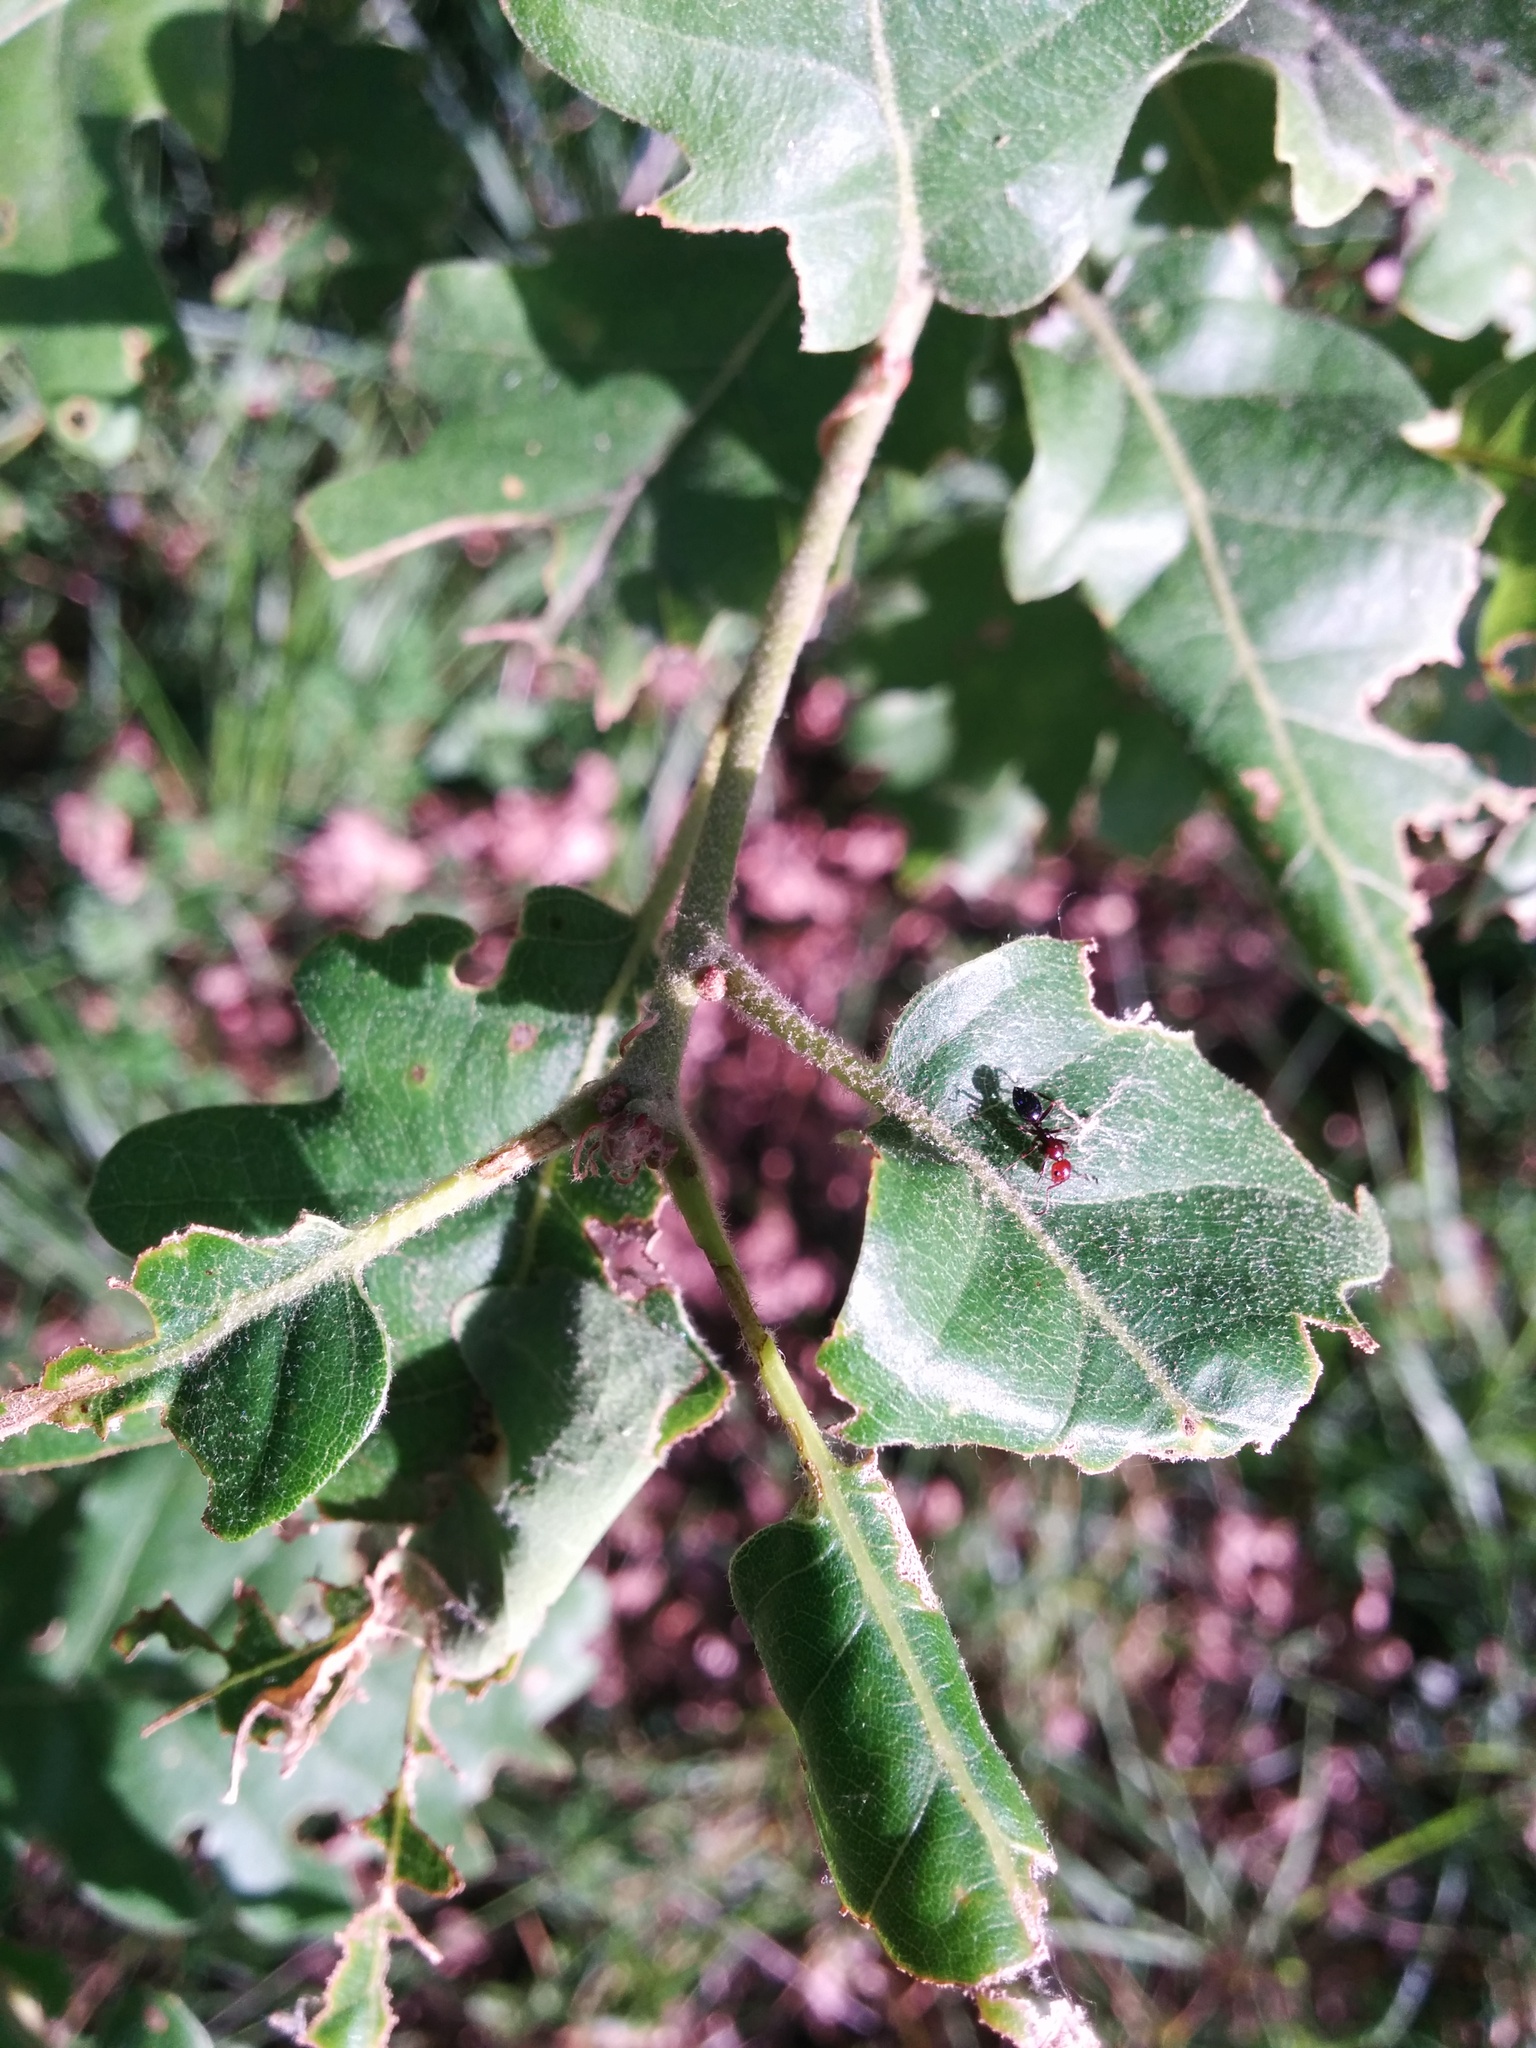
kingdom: Animalia
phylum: Arthropoda
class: Insecta
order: Hymenoptera
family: Formicidae
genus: Camponotus
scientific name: Camponotus lateralis
